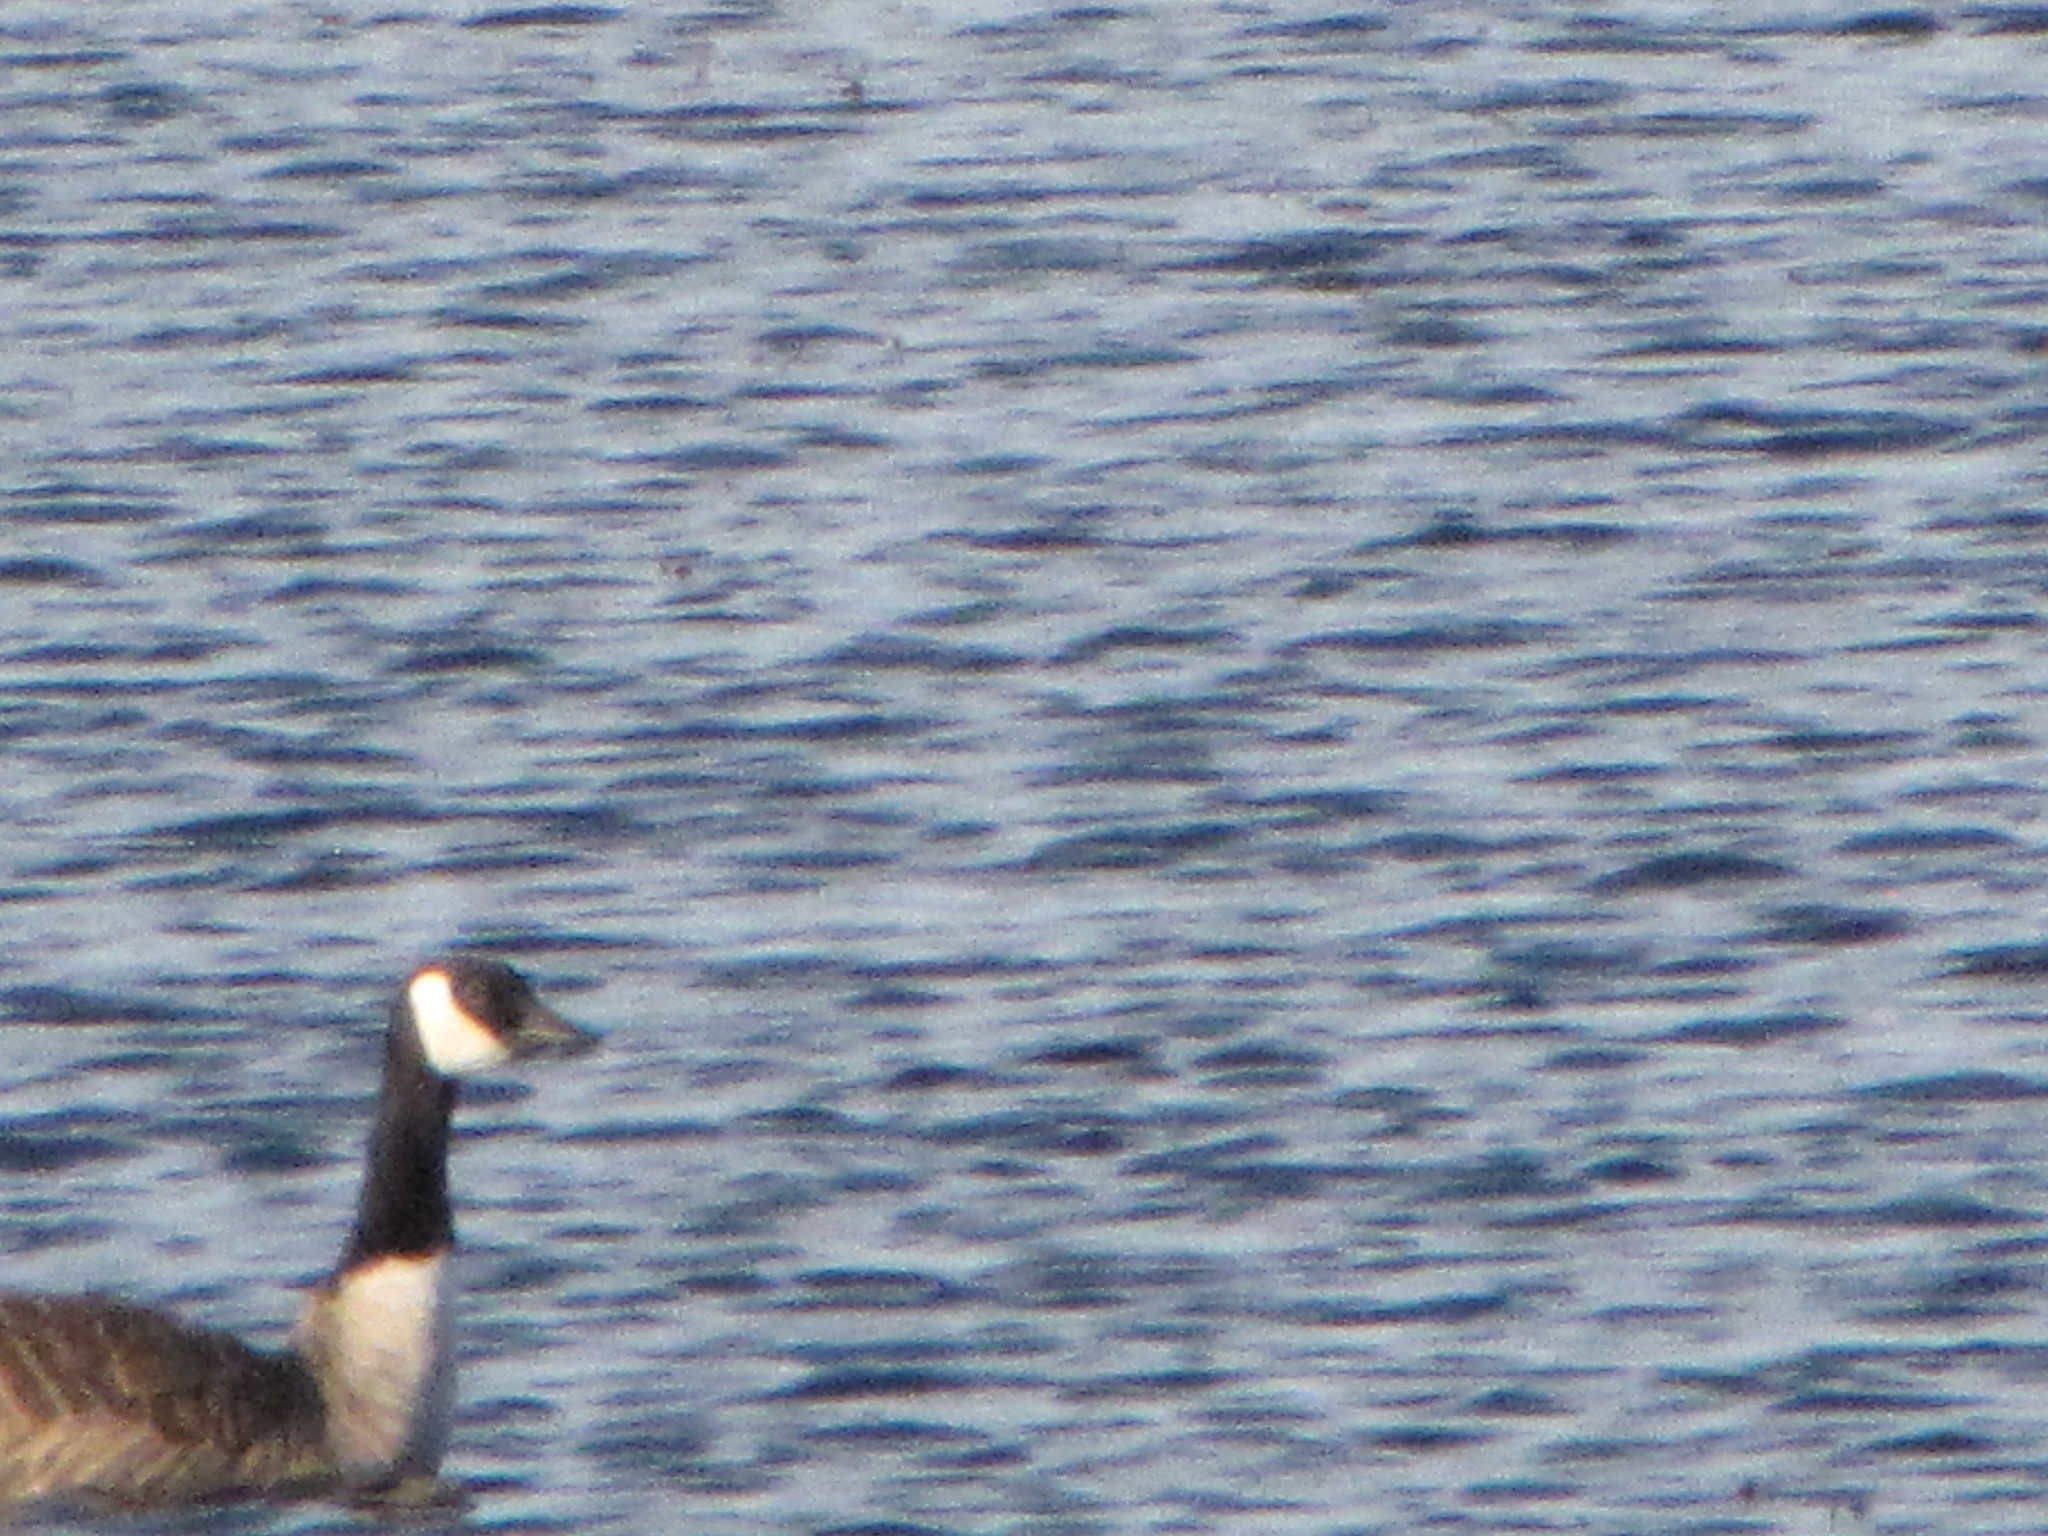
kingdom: Animalia
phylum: Chordata
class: Aves
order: Anseriformes
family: Anatidae
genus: Branta
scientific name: Branta canadensis
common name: Canada goose
